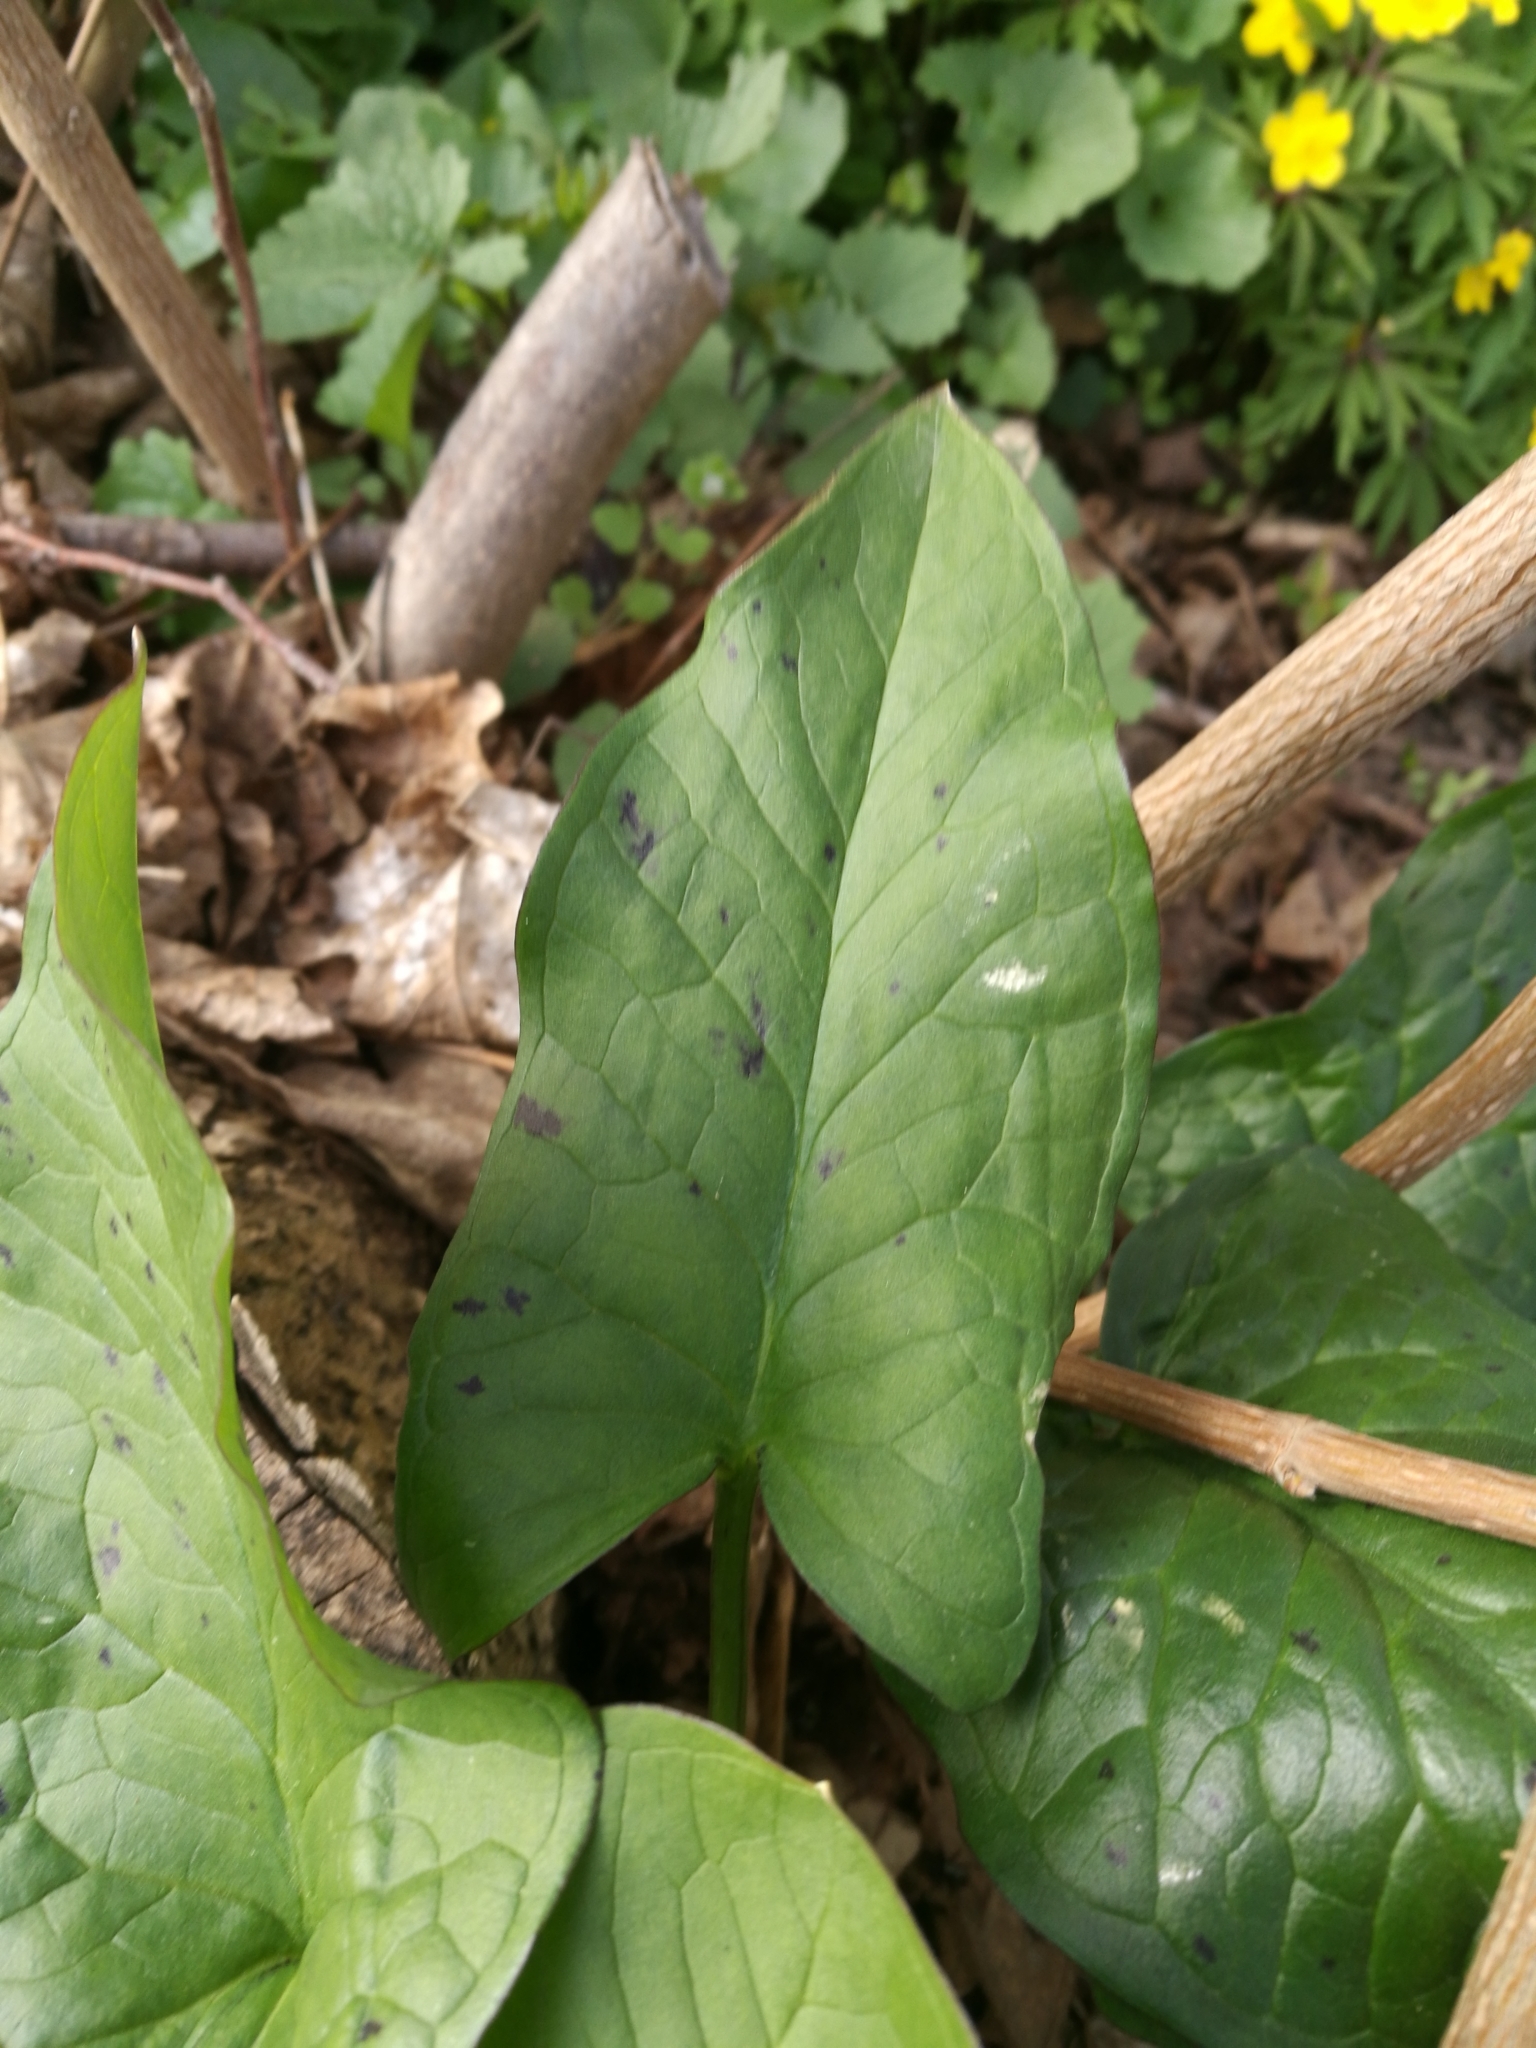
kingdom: Plantae
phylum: Tracheophyta
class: Liliopsida
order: Alismatales
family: Araceae
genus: Arum
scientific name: Arum maculatum
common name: Lords-and-ladies
